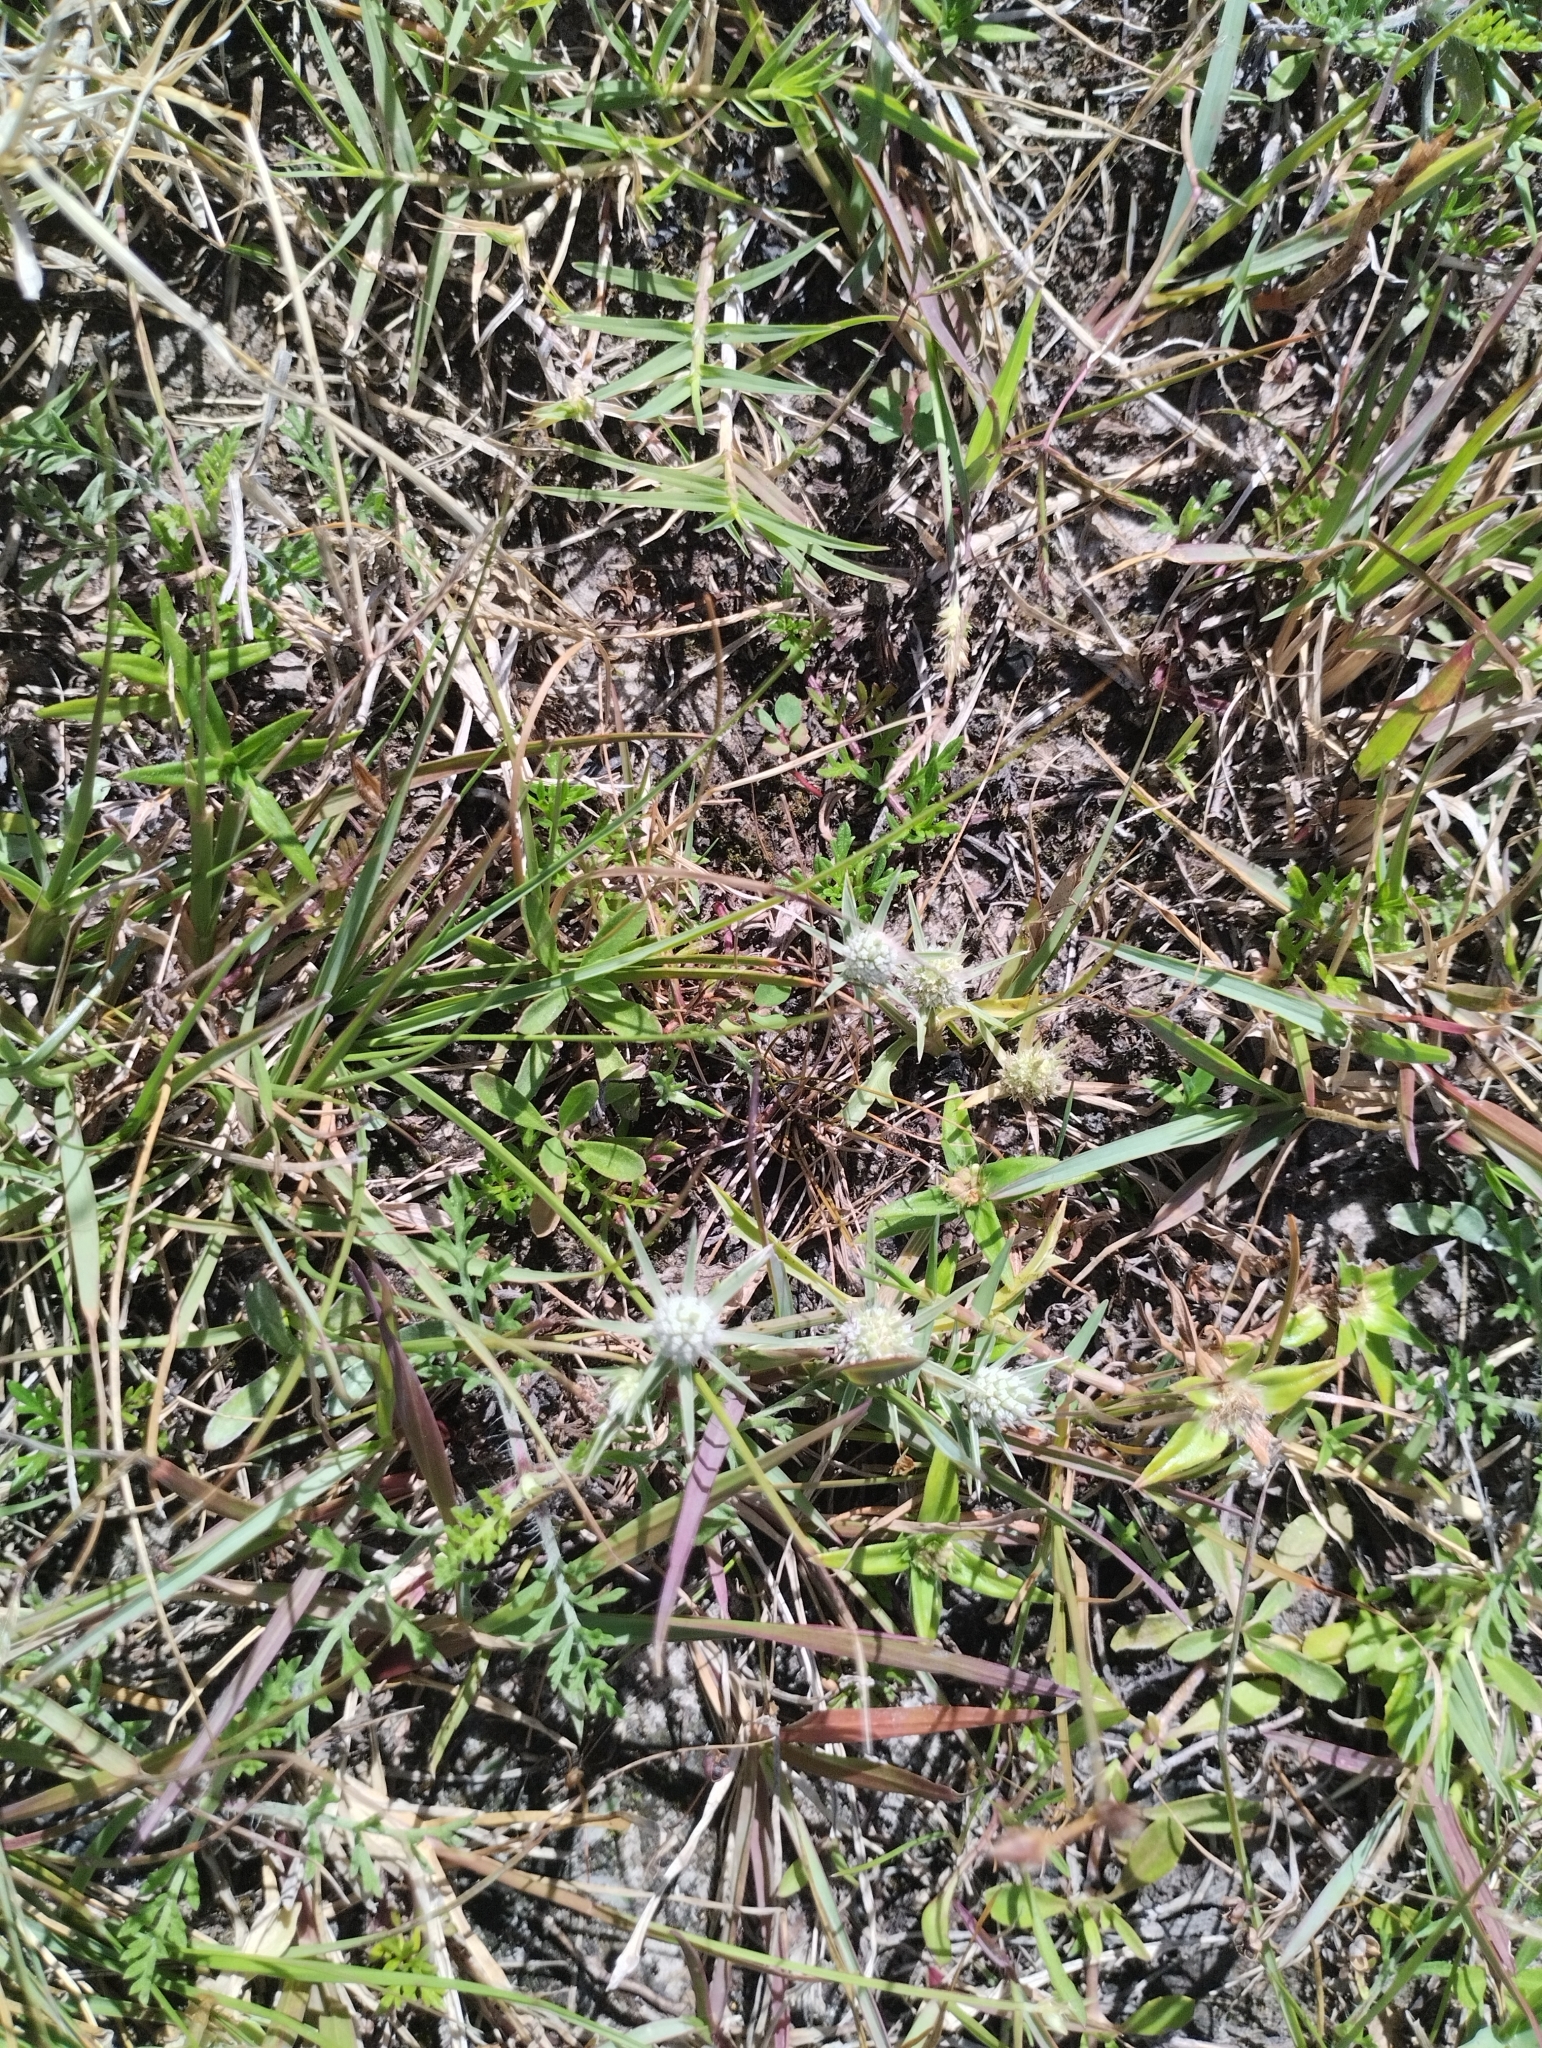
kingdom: Plantae
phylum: Tracheophyta
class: Magnoliopsida
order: Apiales
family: Apiaceae
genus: Eryngium
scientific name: Eryngium echinatum
